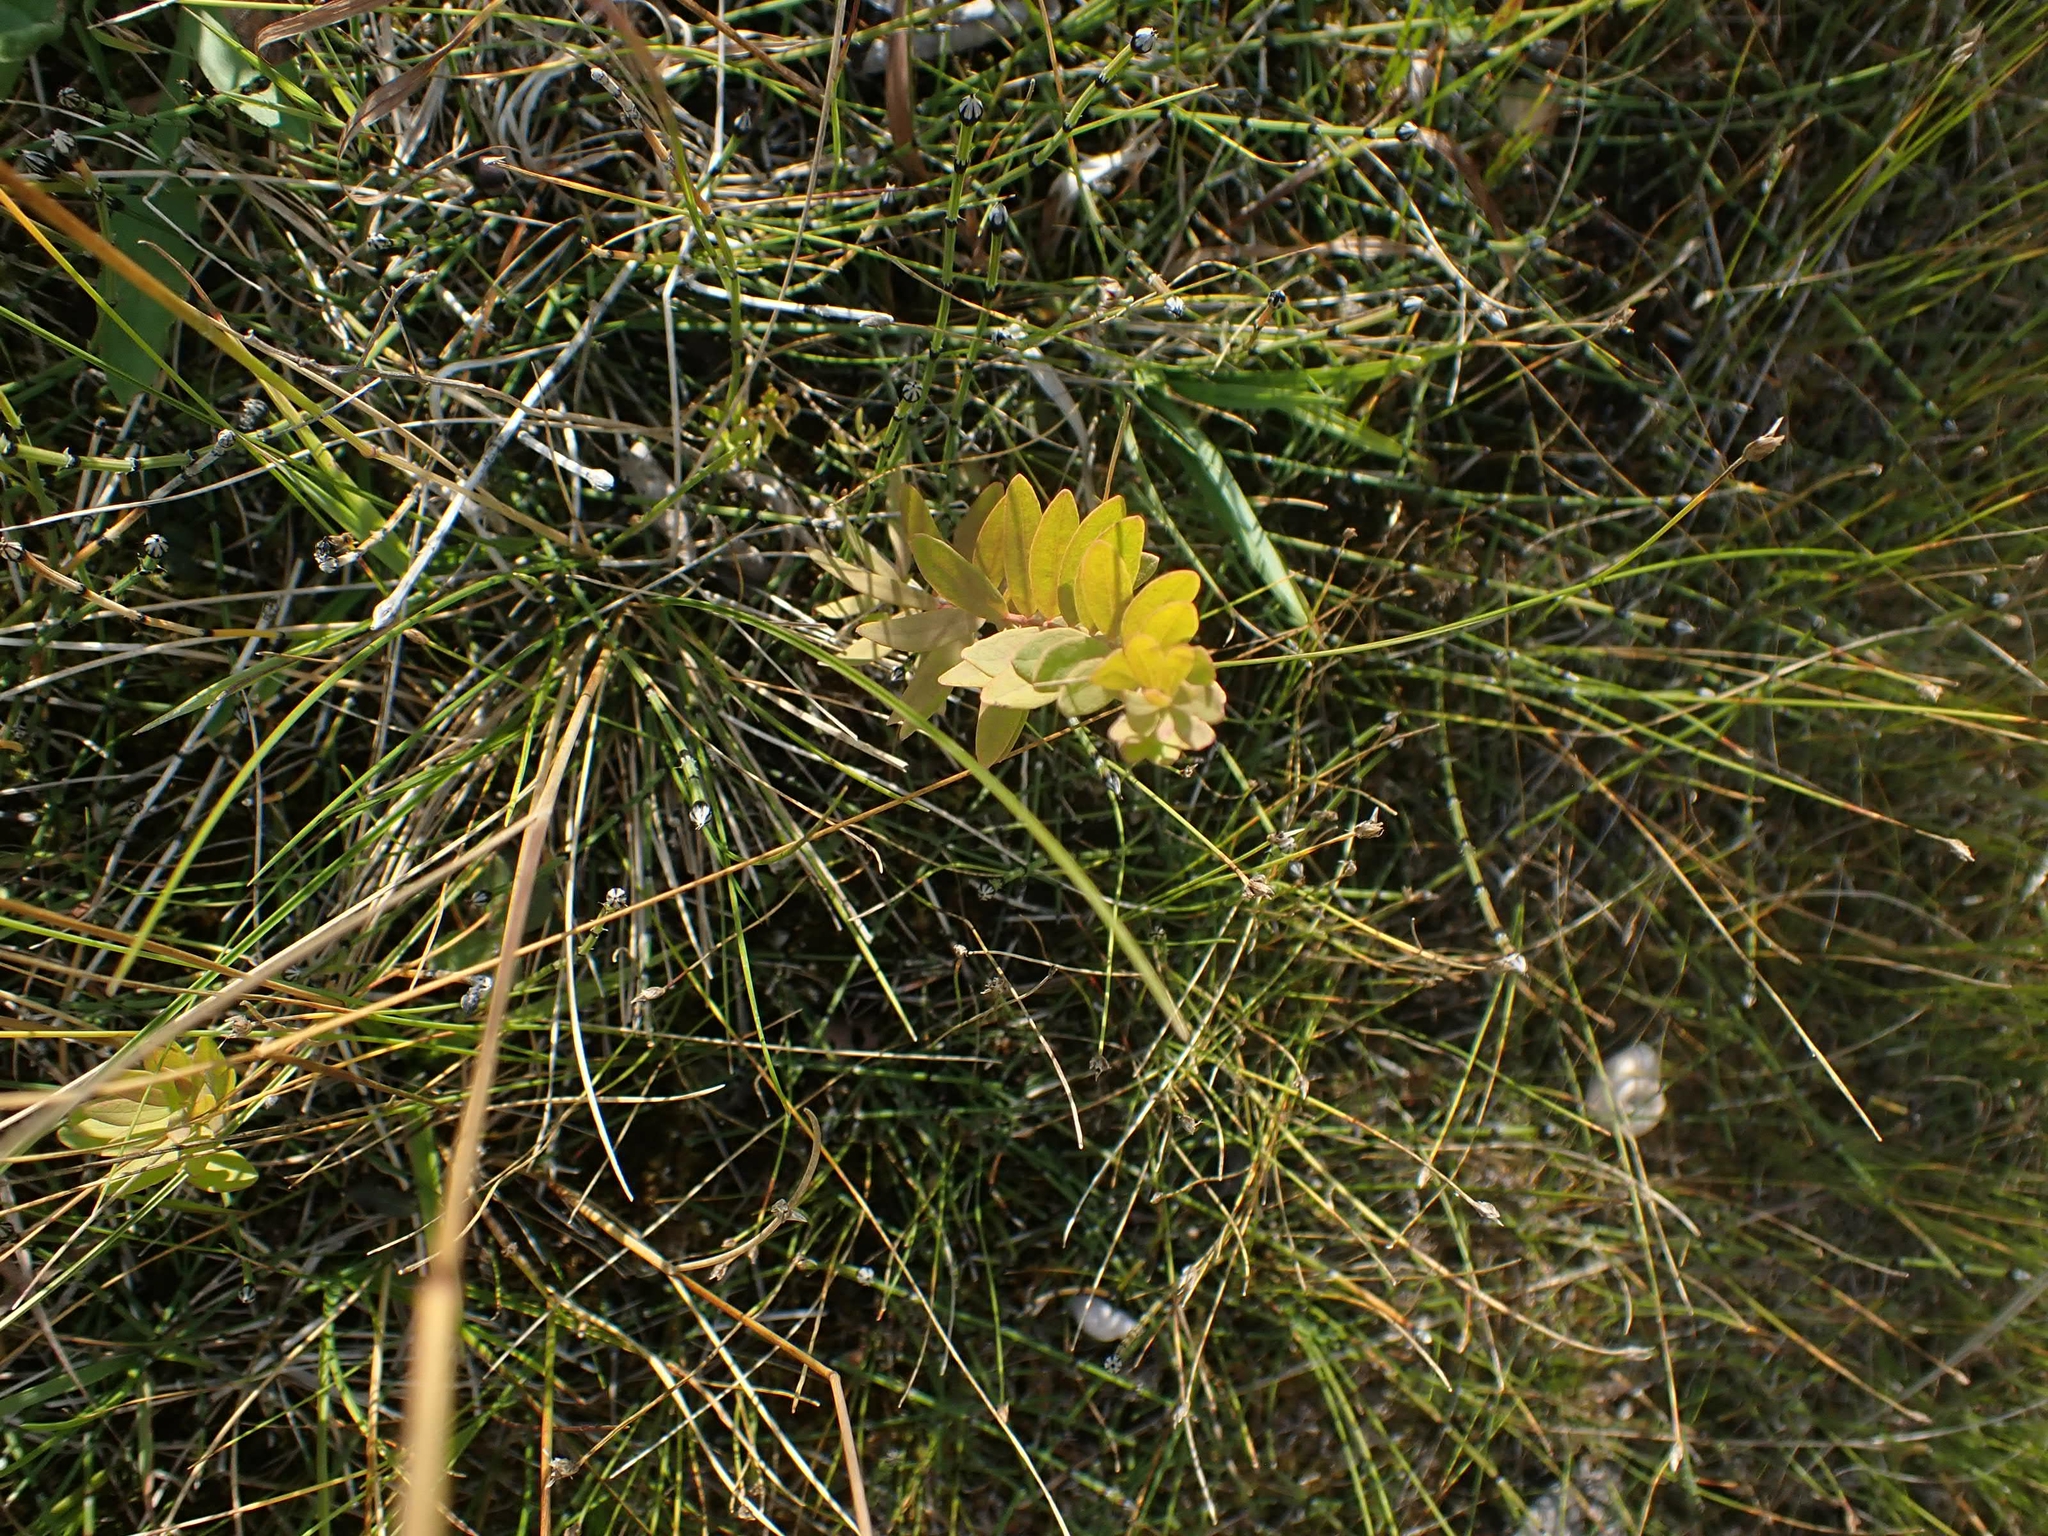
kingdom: Plantae
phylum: Tracheophyta
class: Magnoliopsida
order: Santalales
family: Comandraceae
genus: Comandra
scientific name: Comandra umbellata
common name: Bastard toadflax
